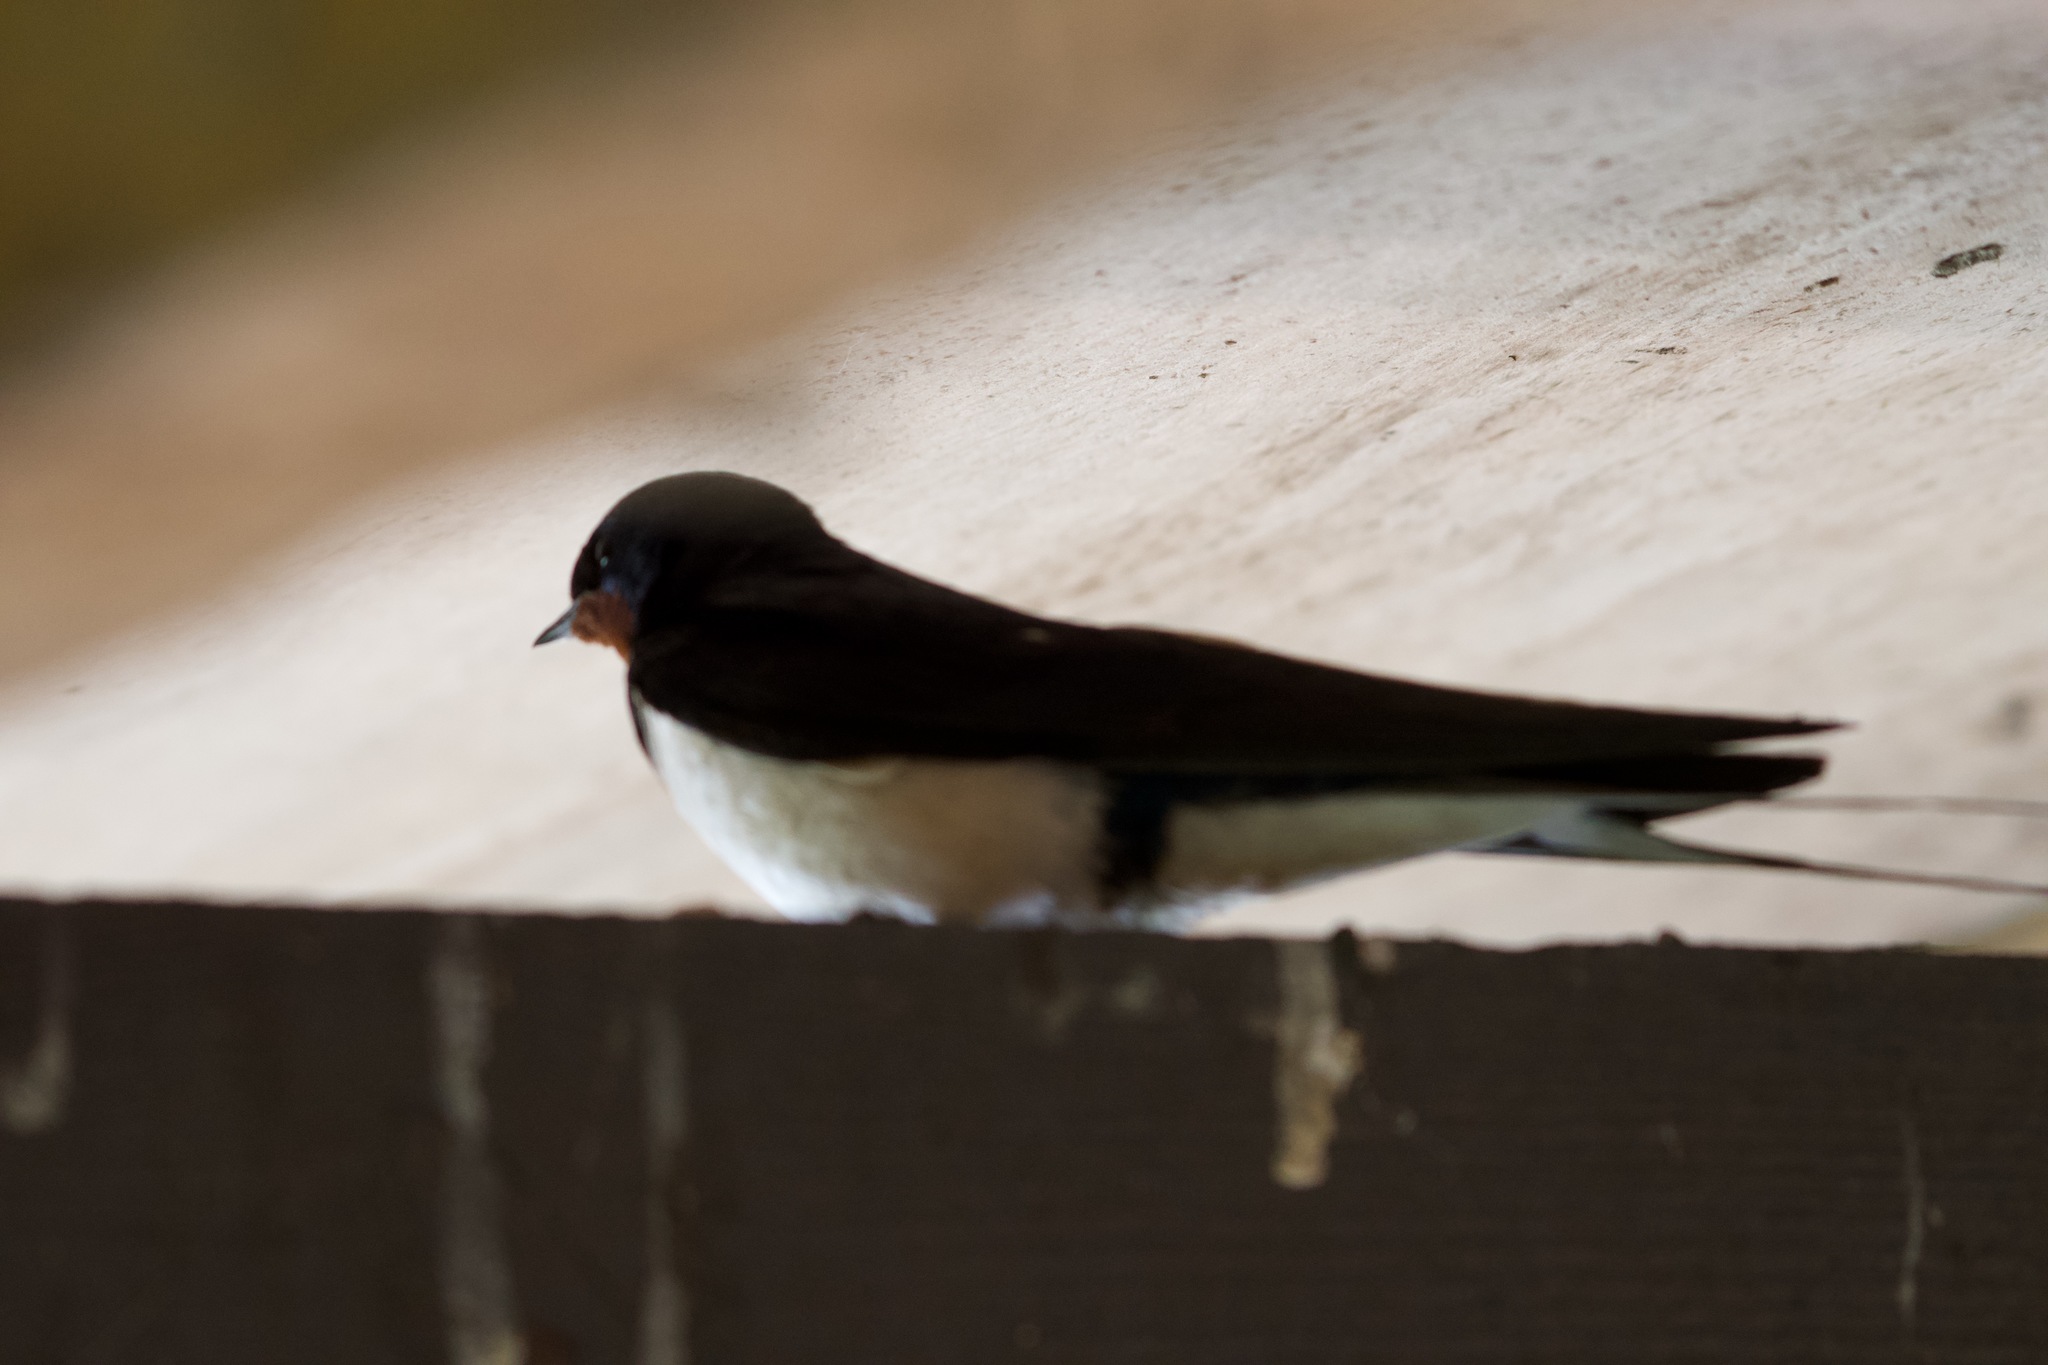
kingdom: Animalia
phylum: Chordata
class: Aves
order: Passeriformes
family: Hirundinidae
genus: Hirundo
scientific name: Hirundo rustica
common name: Barn swallow
